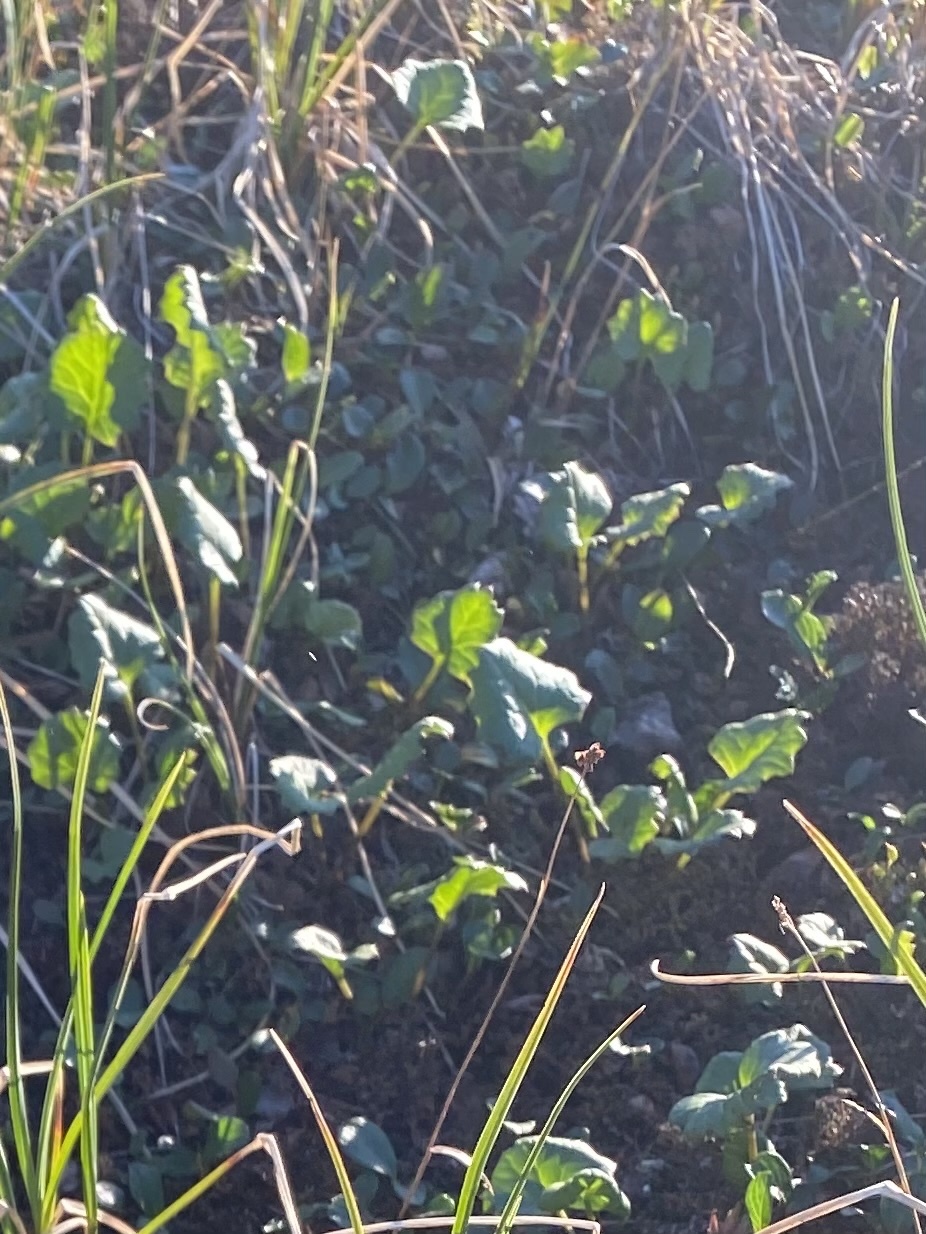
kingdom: Plantae
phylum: Tracheophyta
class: Magnoliopsida
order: Asterales
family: Asteraceae
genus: Endocellion
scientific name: Endocellion glaciale
